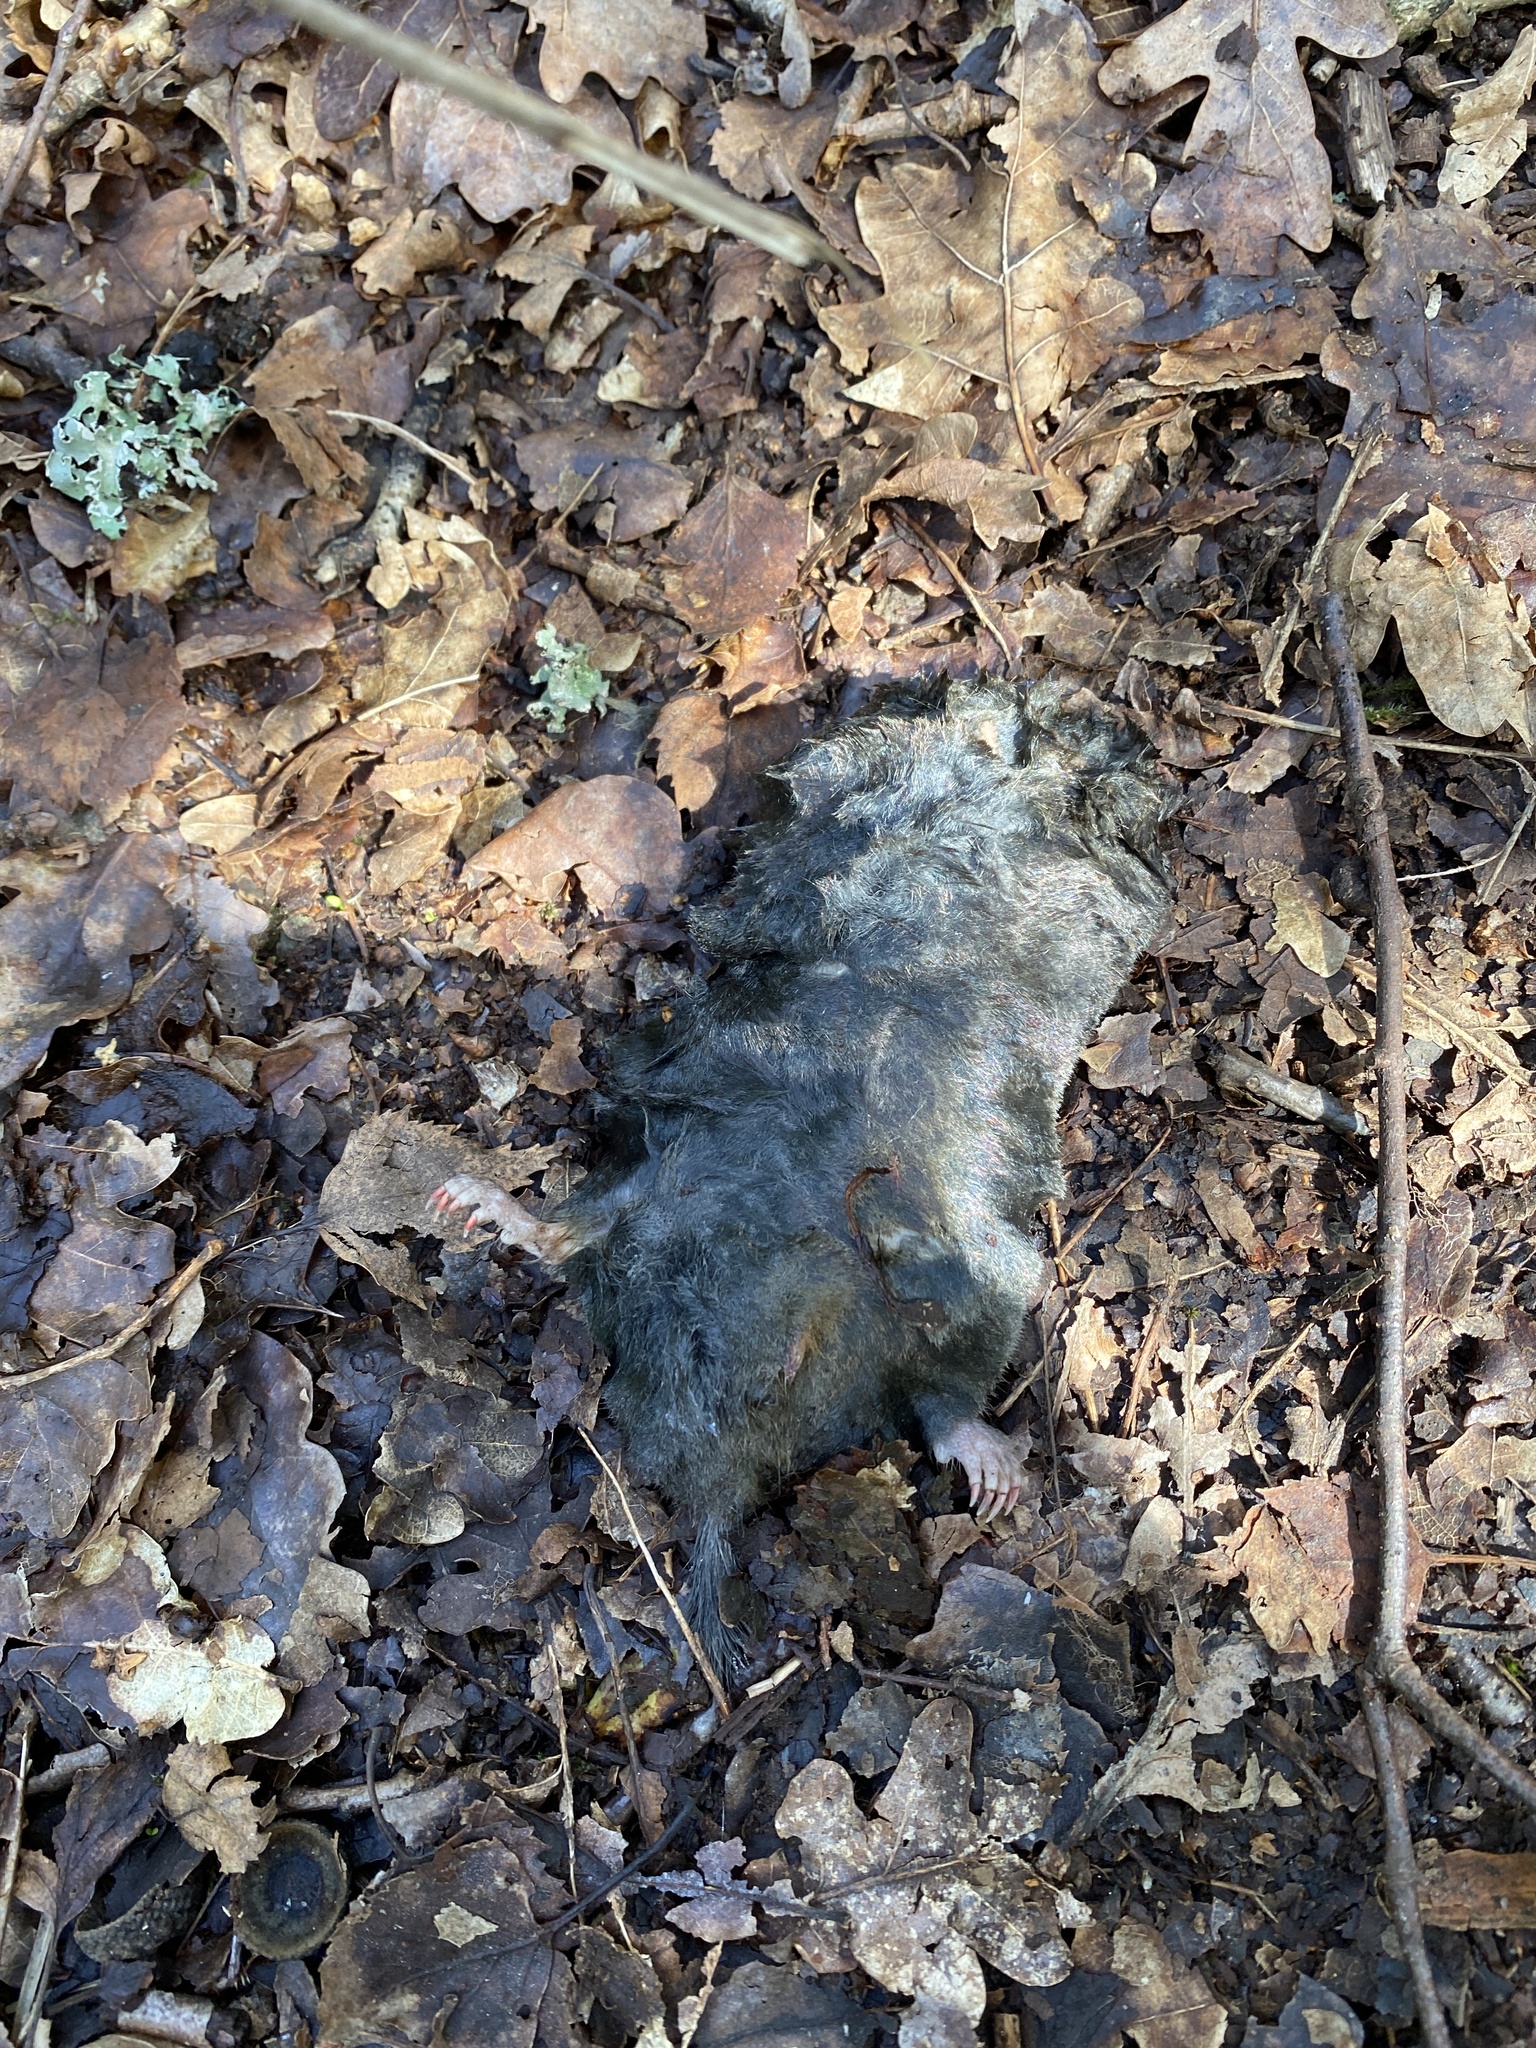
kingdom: Animalia
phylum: Chordata
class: Mammalia
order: Soricomorpha
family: Talpidae
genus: Talpa
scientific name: Talpa europaea
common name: European mole
